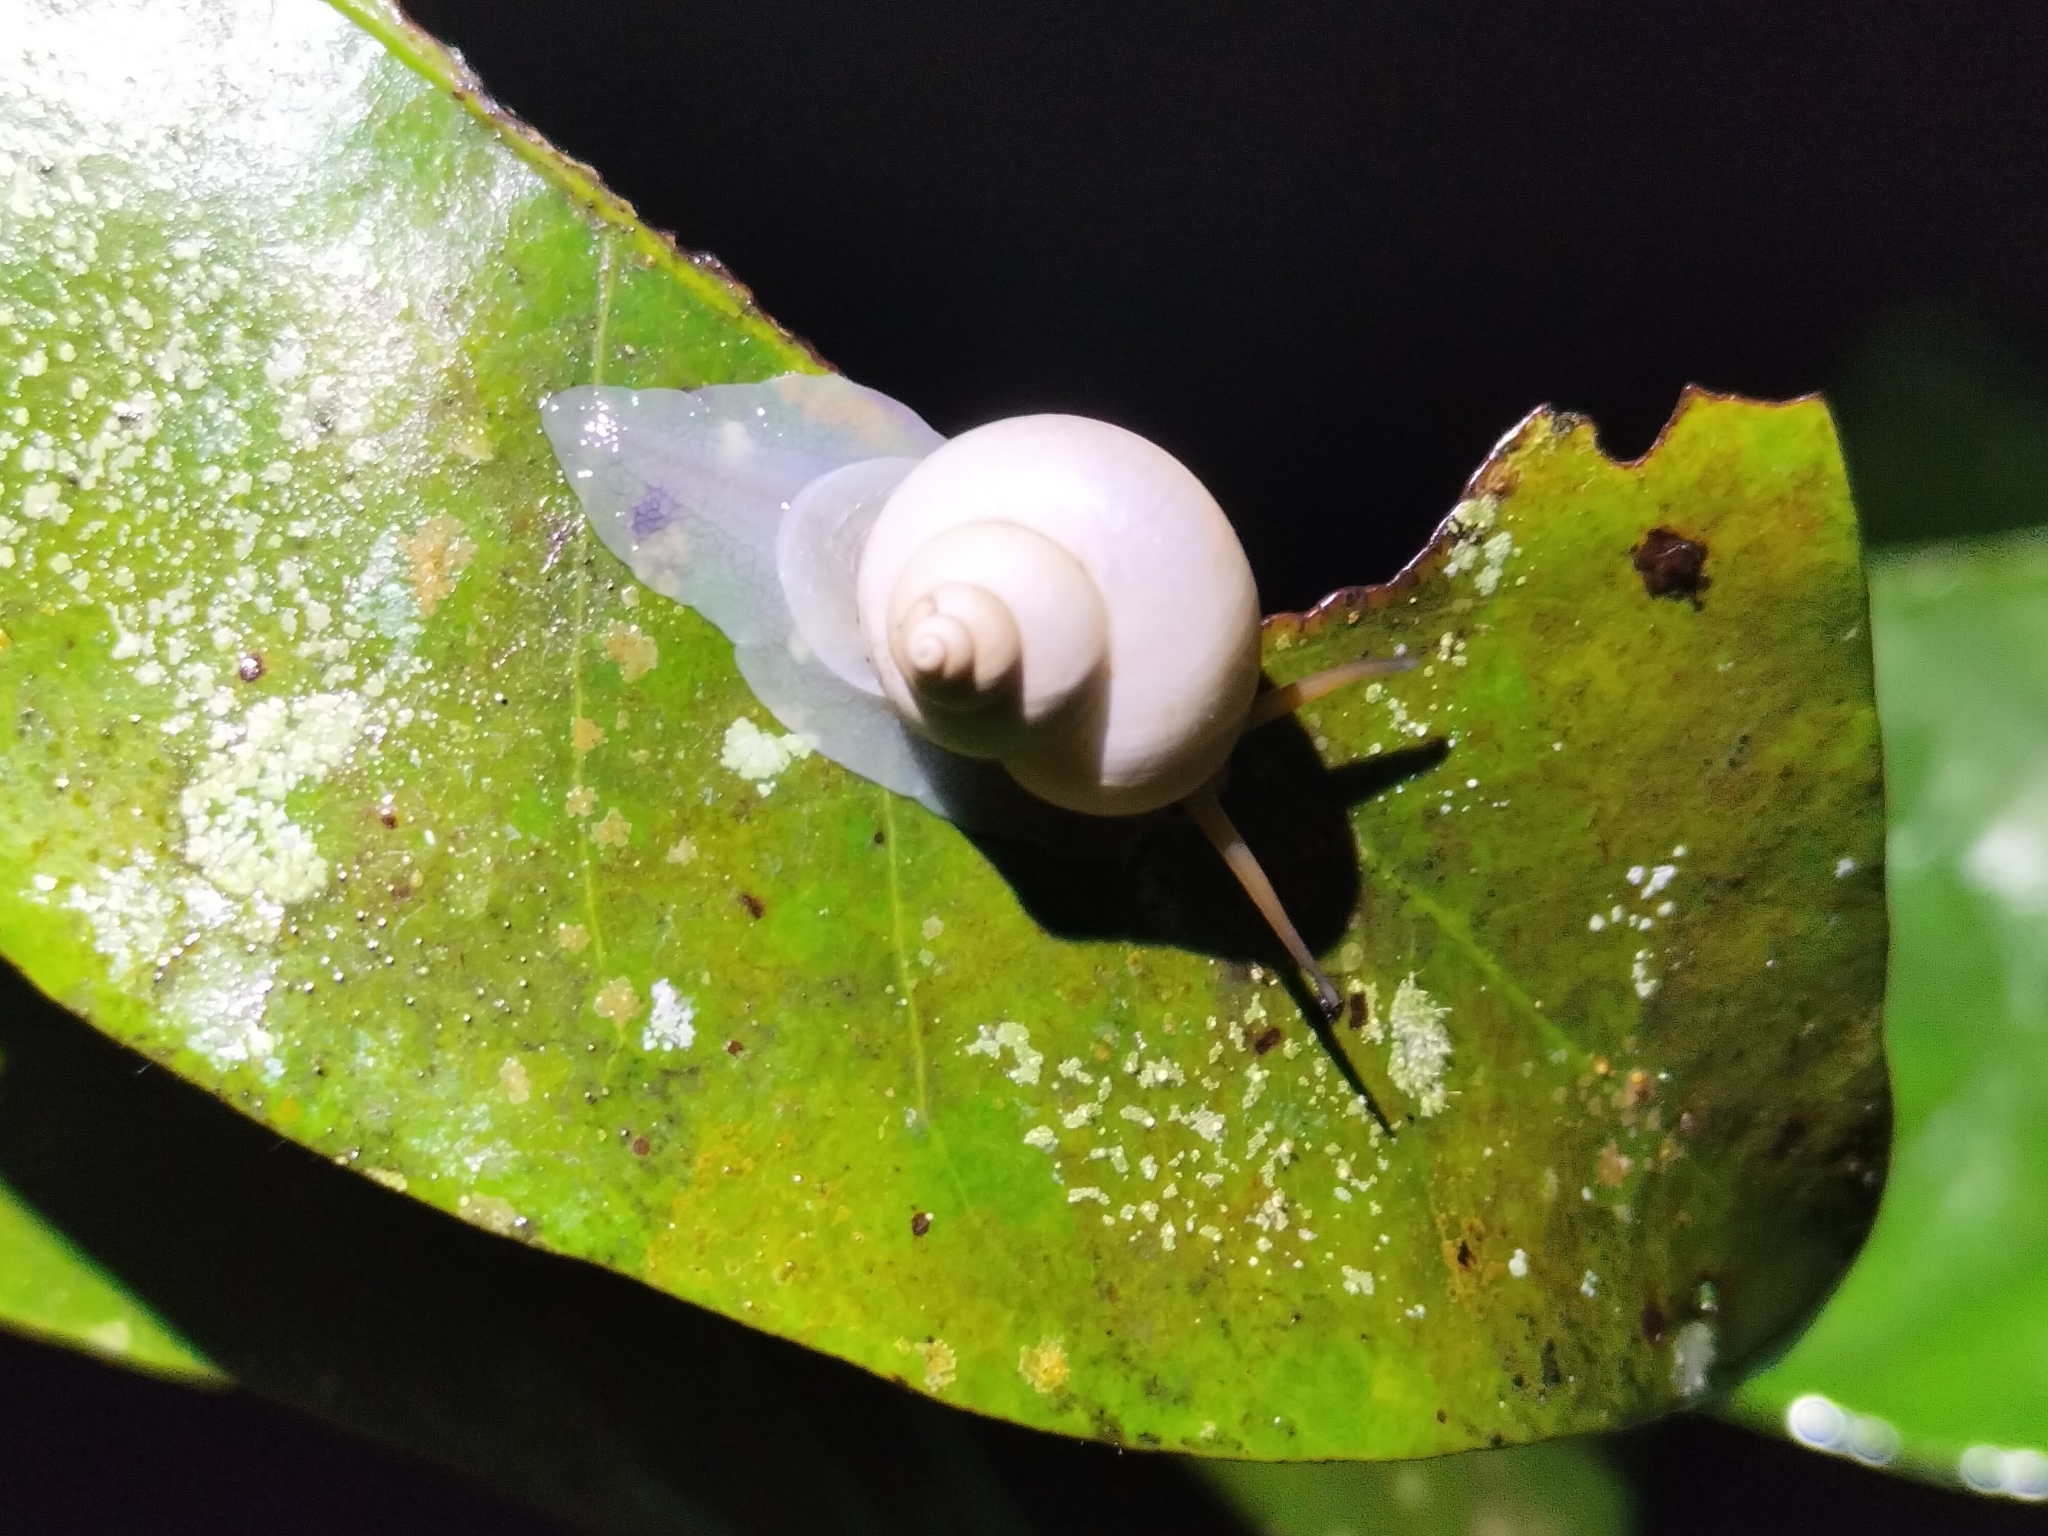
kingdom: Animalia
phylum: Mollusca
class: Gastropoda
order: Architaenioglossa
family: Cyclophoridae
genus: Leptopoma
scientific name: Leptopoma perlucidum
